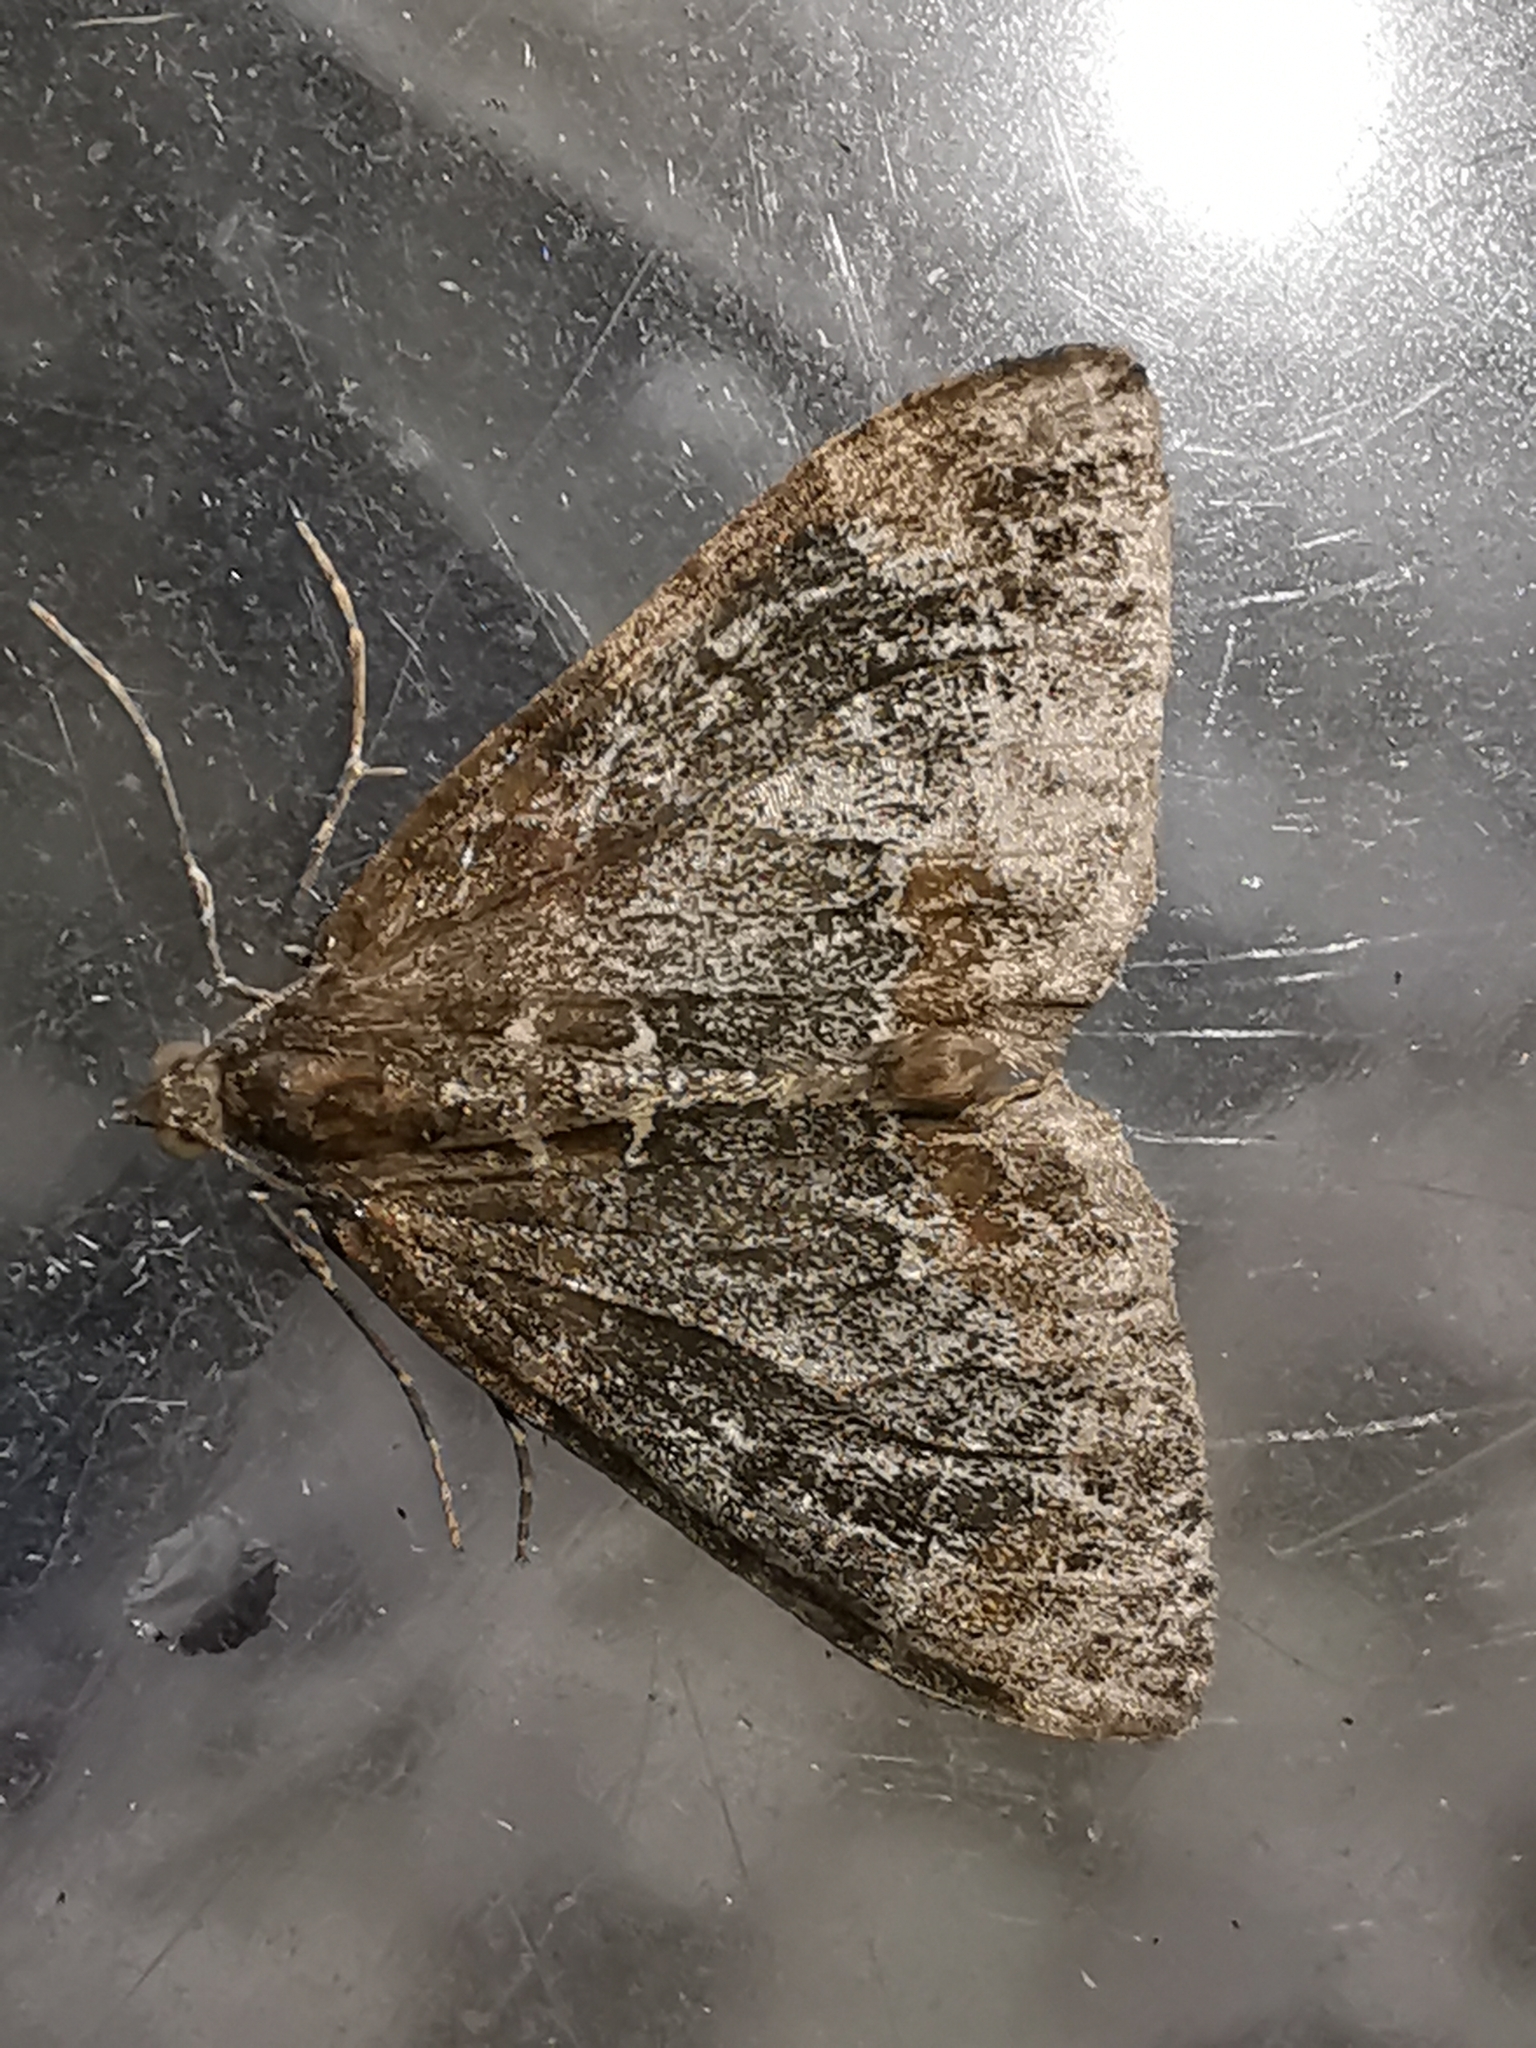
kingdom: Animalia
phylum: Arthropoda
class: Insecta
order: Lepidoptera
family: Geometridae
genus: Dysstroma
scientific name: Dysstroma truncata
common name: Common marbled carpet
